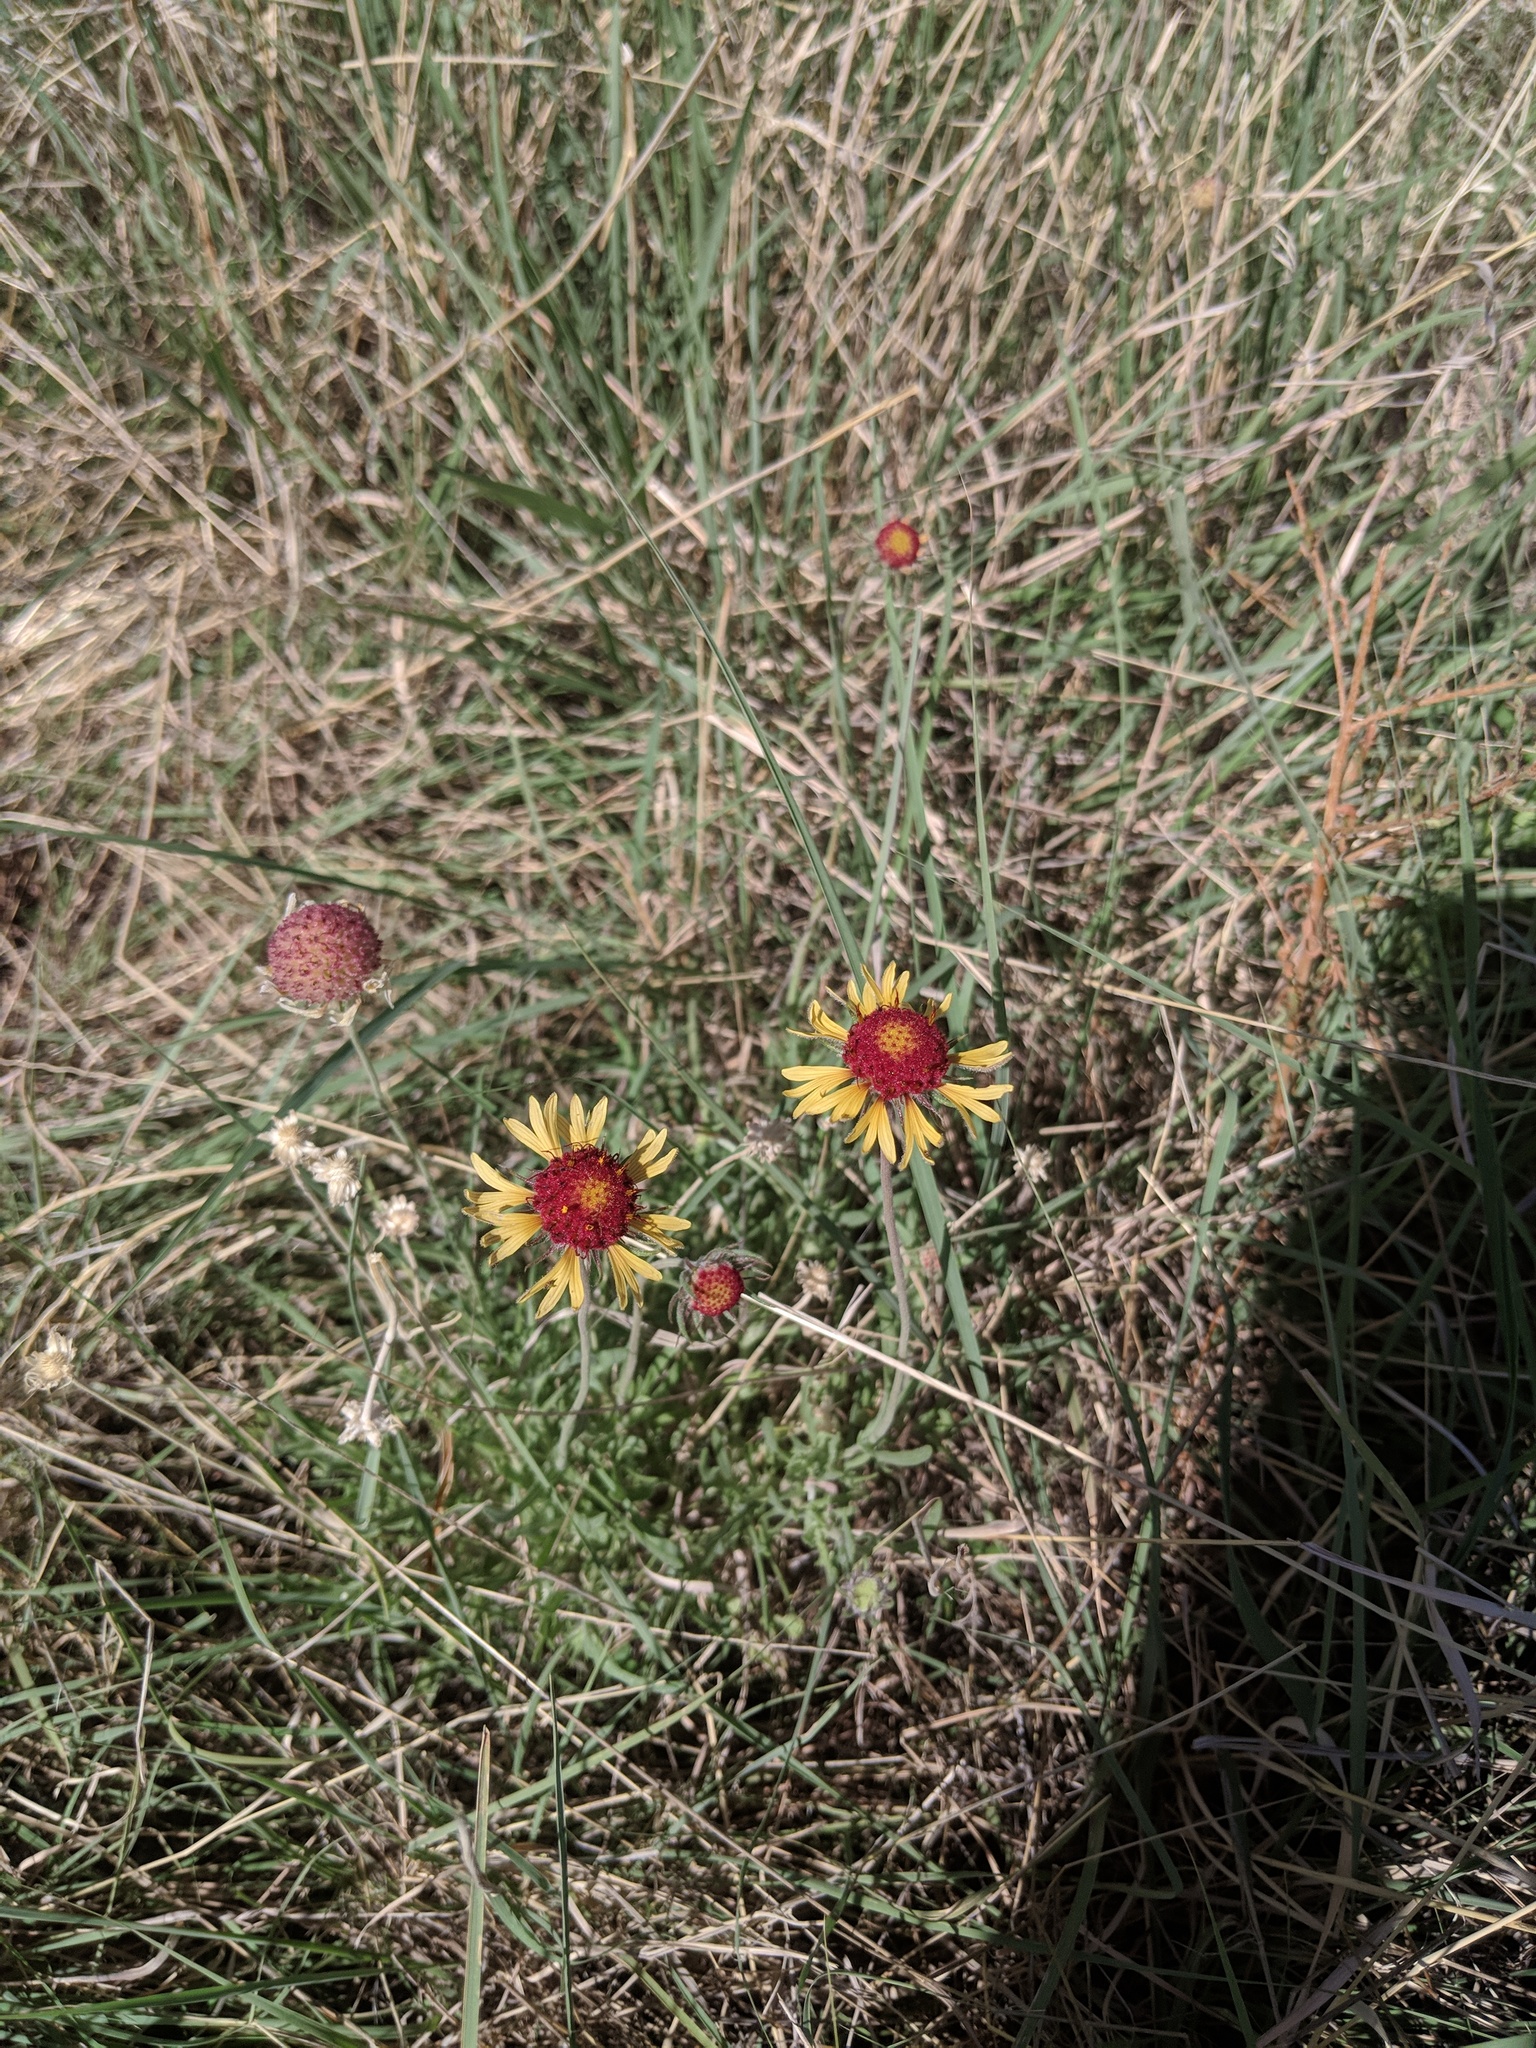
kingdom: Plantae
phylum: Tracheophyta
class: Magnoliopsida
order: Asterales
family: Asteraceae
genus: Gaillardia
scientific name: Gaillardia pinnatifida
